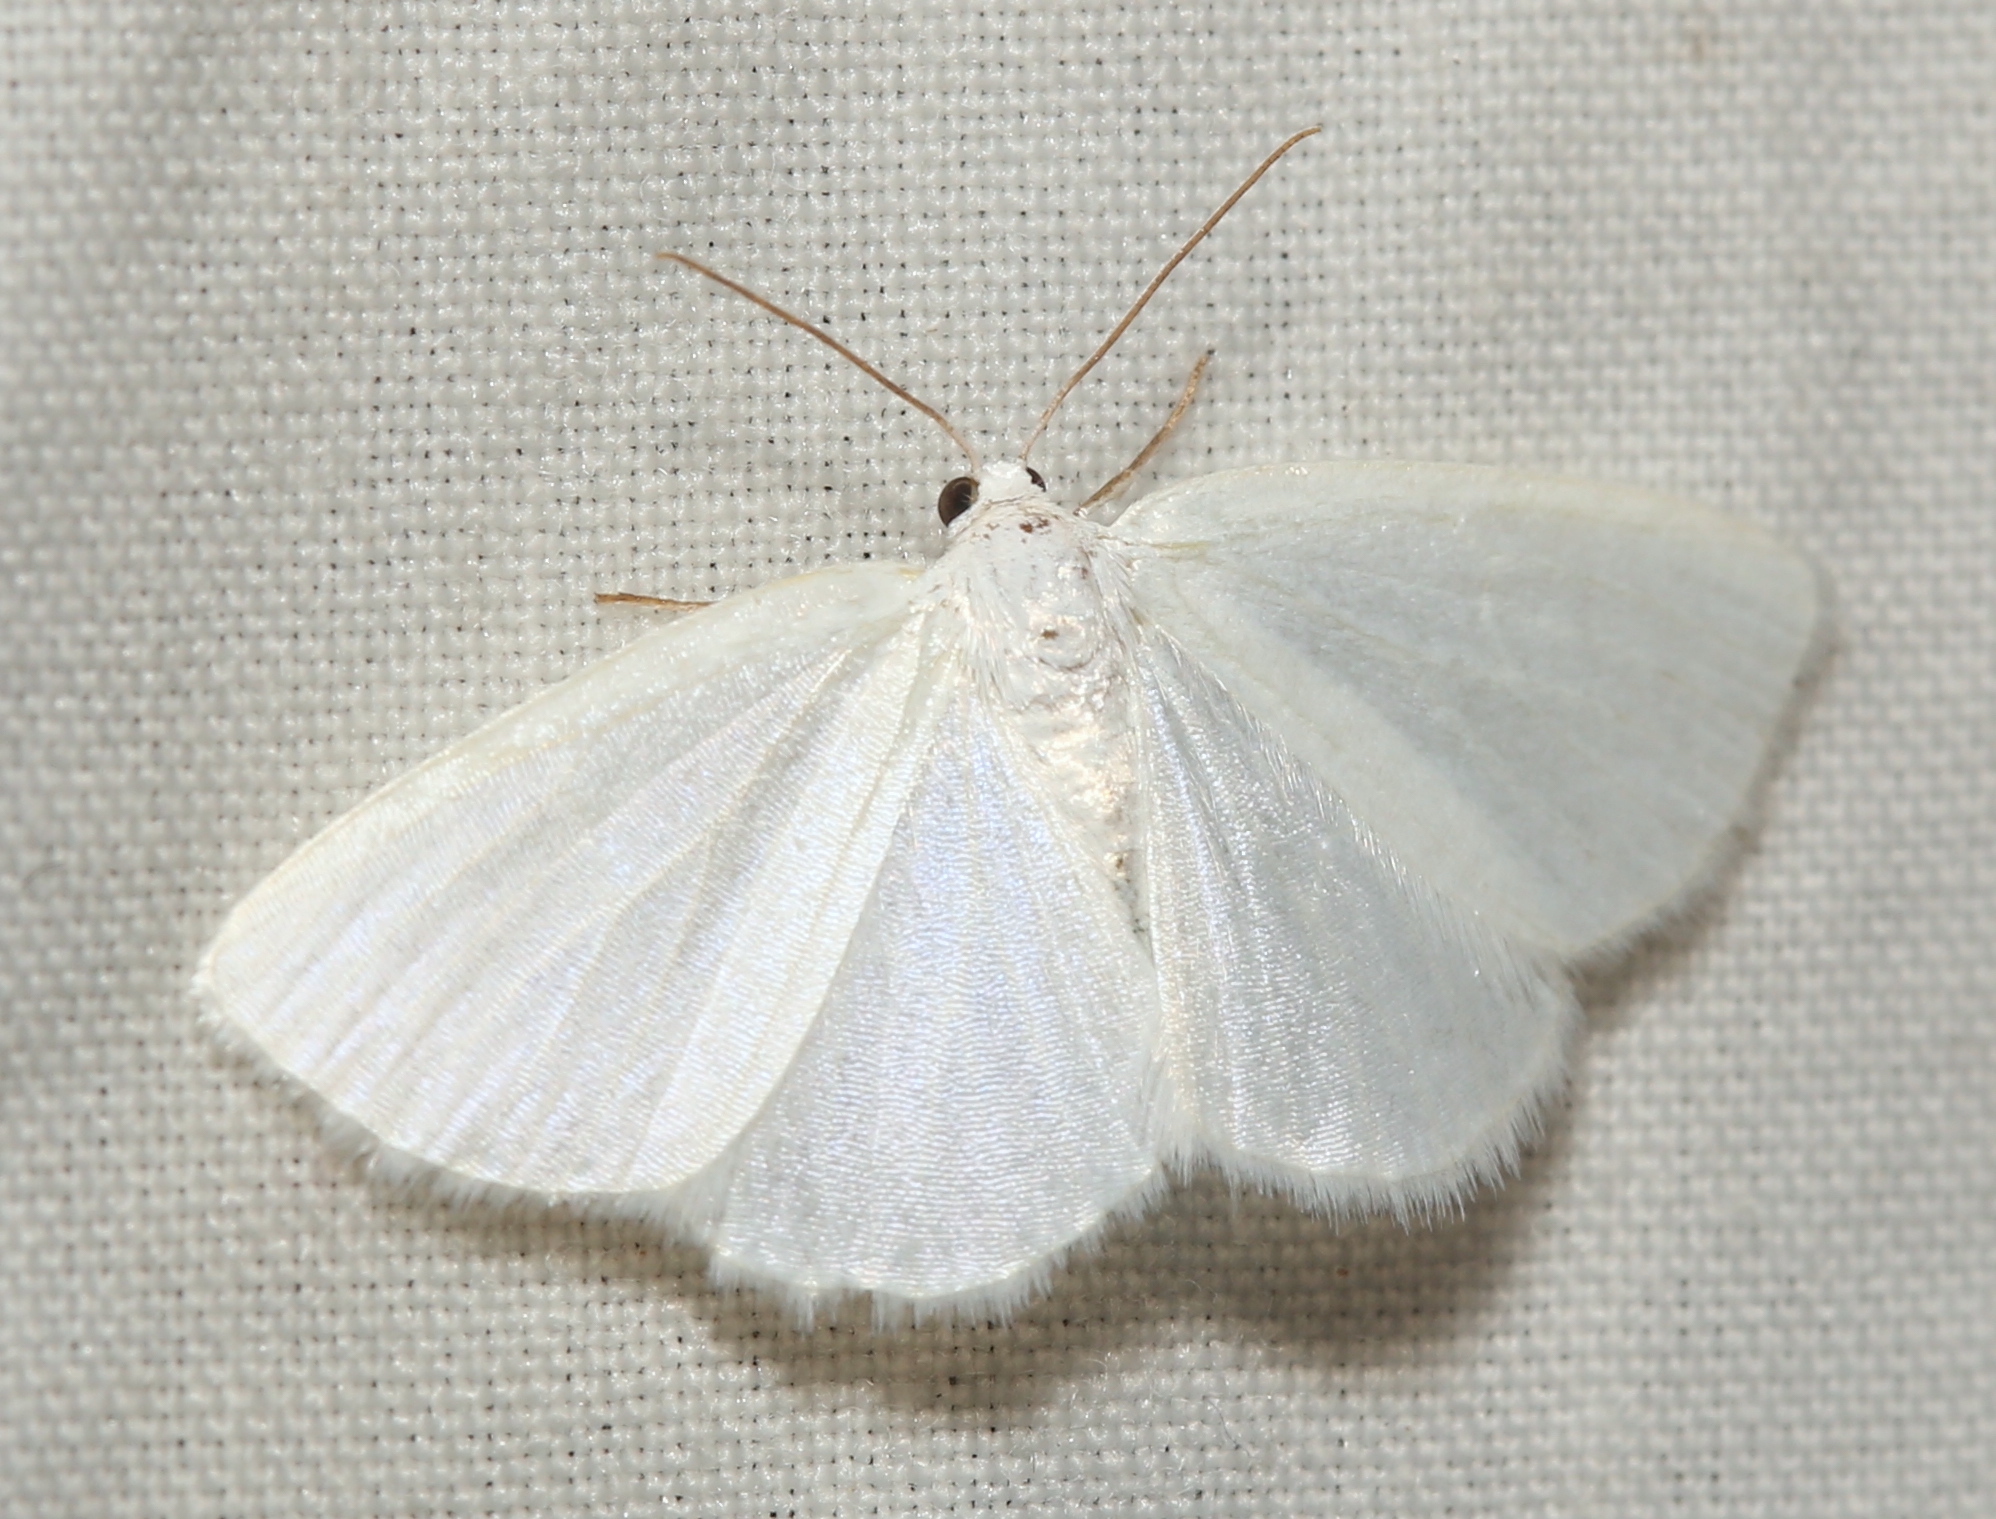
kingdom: Animalia
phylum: Arthropoda
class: Insecta
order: Lepidoptera
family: Geometridae
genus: Lomographa
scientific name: Lomographa vestaliata
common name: White spring moth
